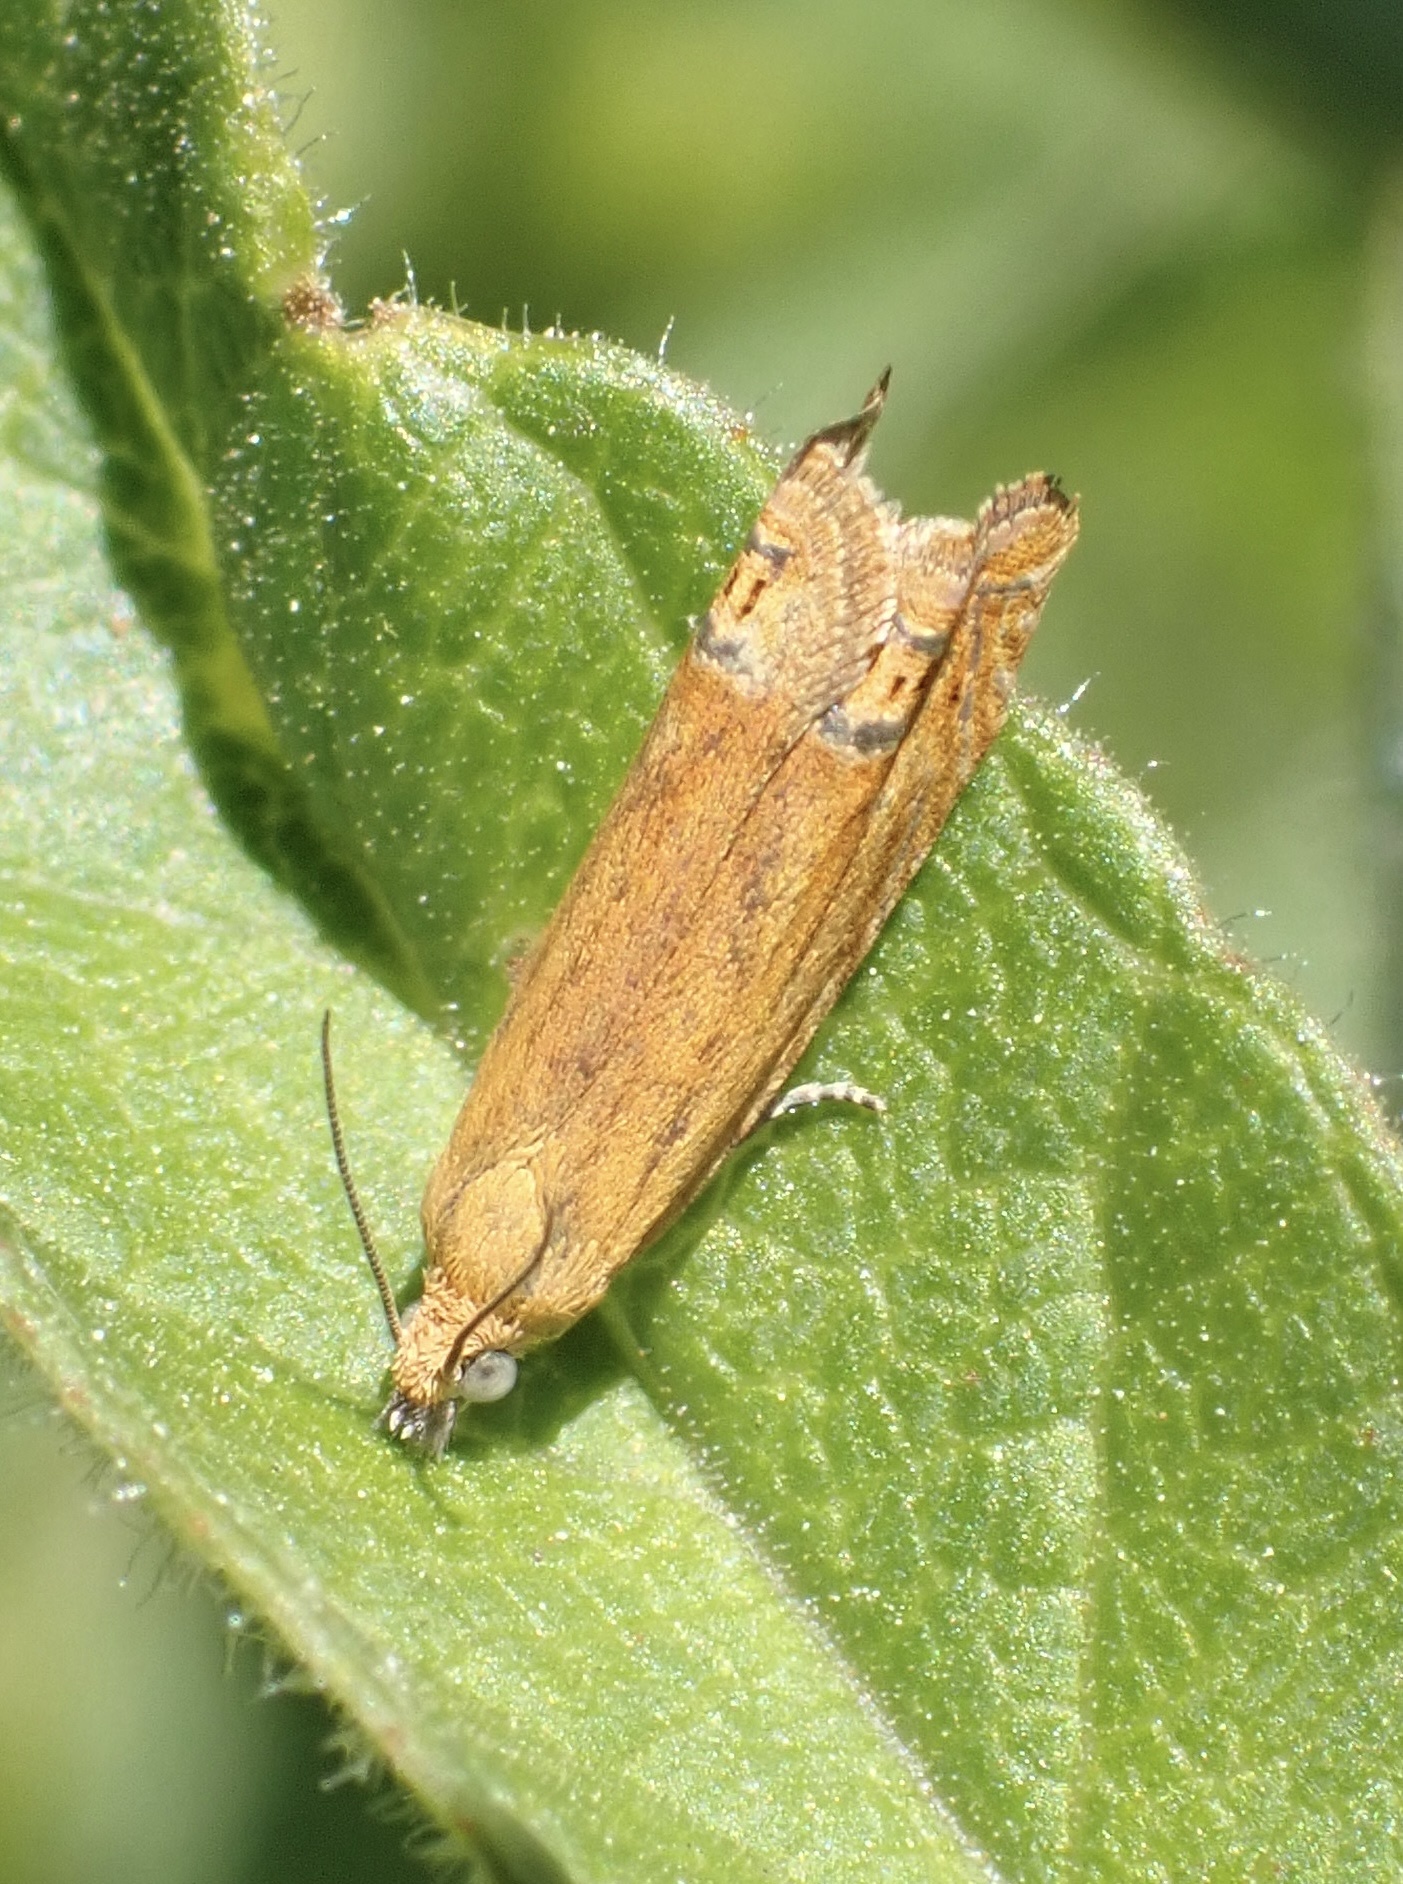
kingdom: Animalia
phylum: Arthropoda
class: Insecta
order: Lepidoptera
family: Tortricidae
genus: Lathronympha
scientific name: Lathronympha strigana
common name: Red piercer
